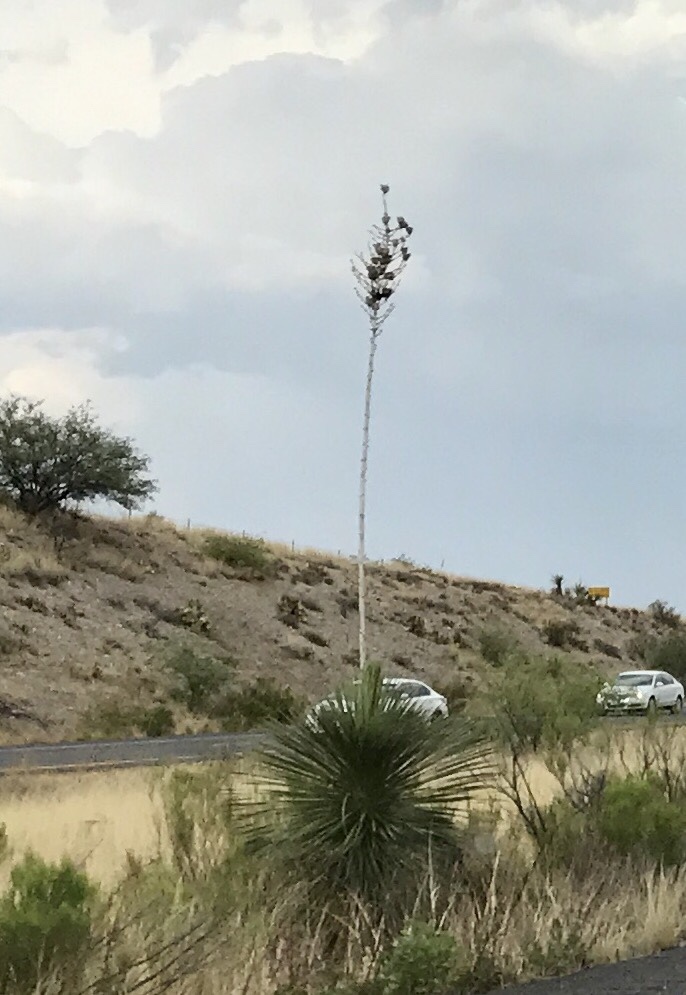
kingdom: Plantae
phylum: Tracheophyta
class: Liliopsida
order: Asparagales
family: Asparagaceae
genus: Yucca
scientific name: Yucca elata
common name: Palmella
